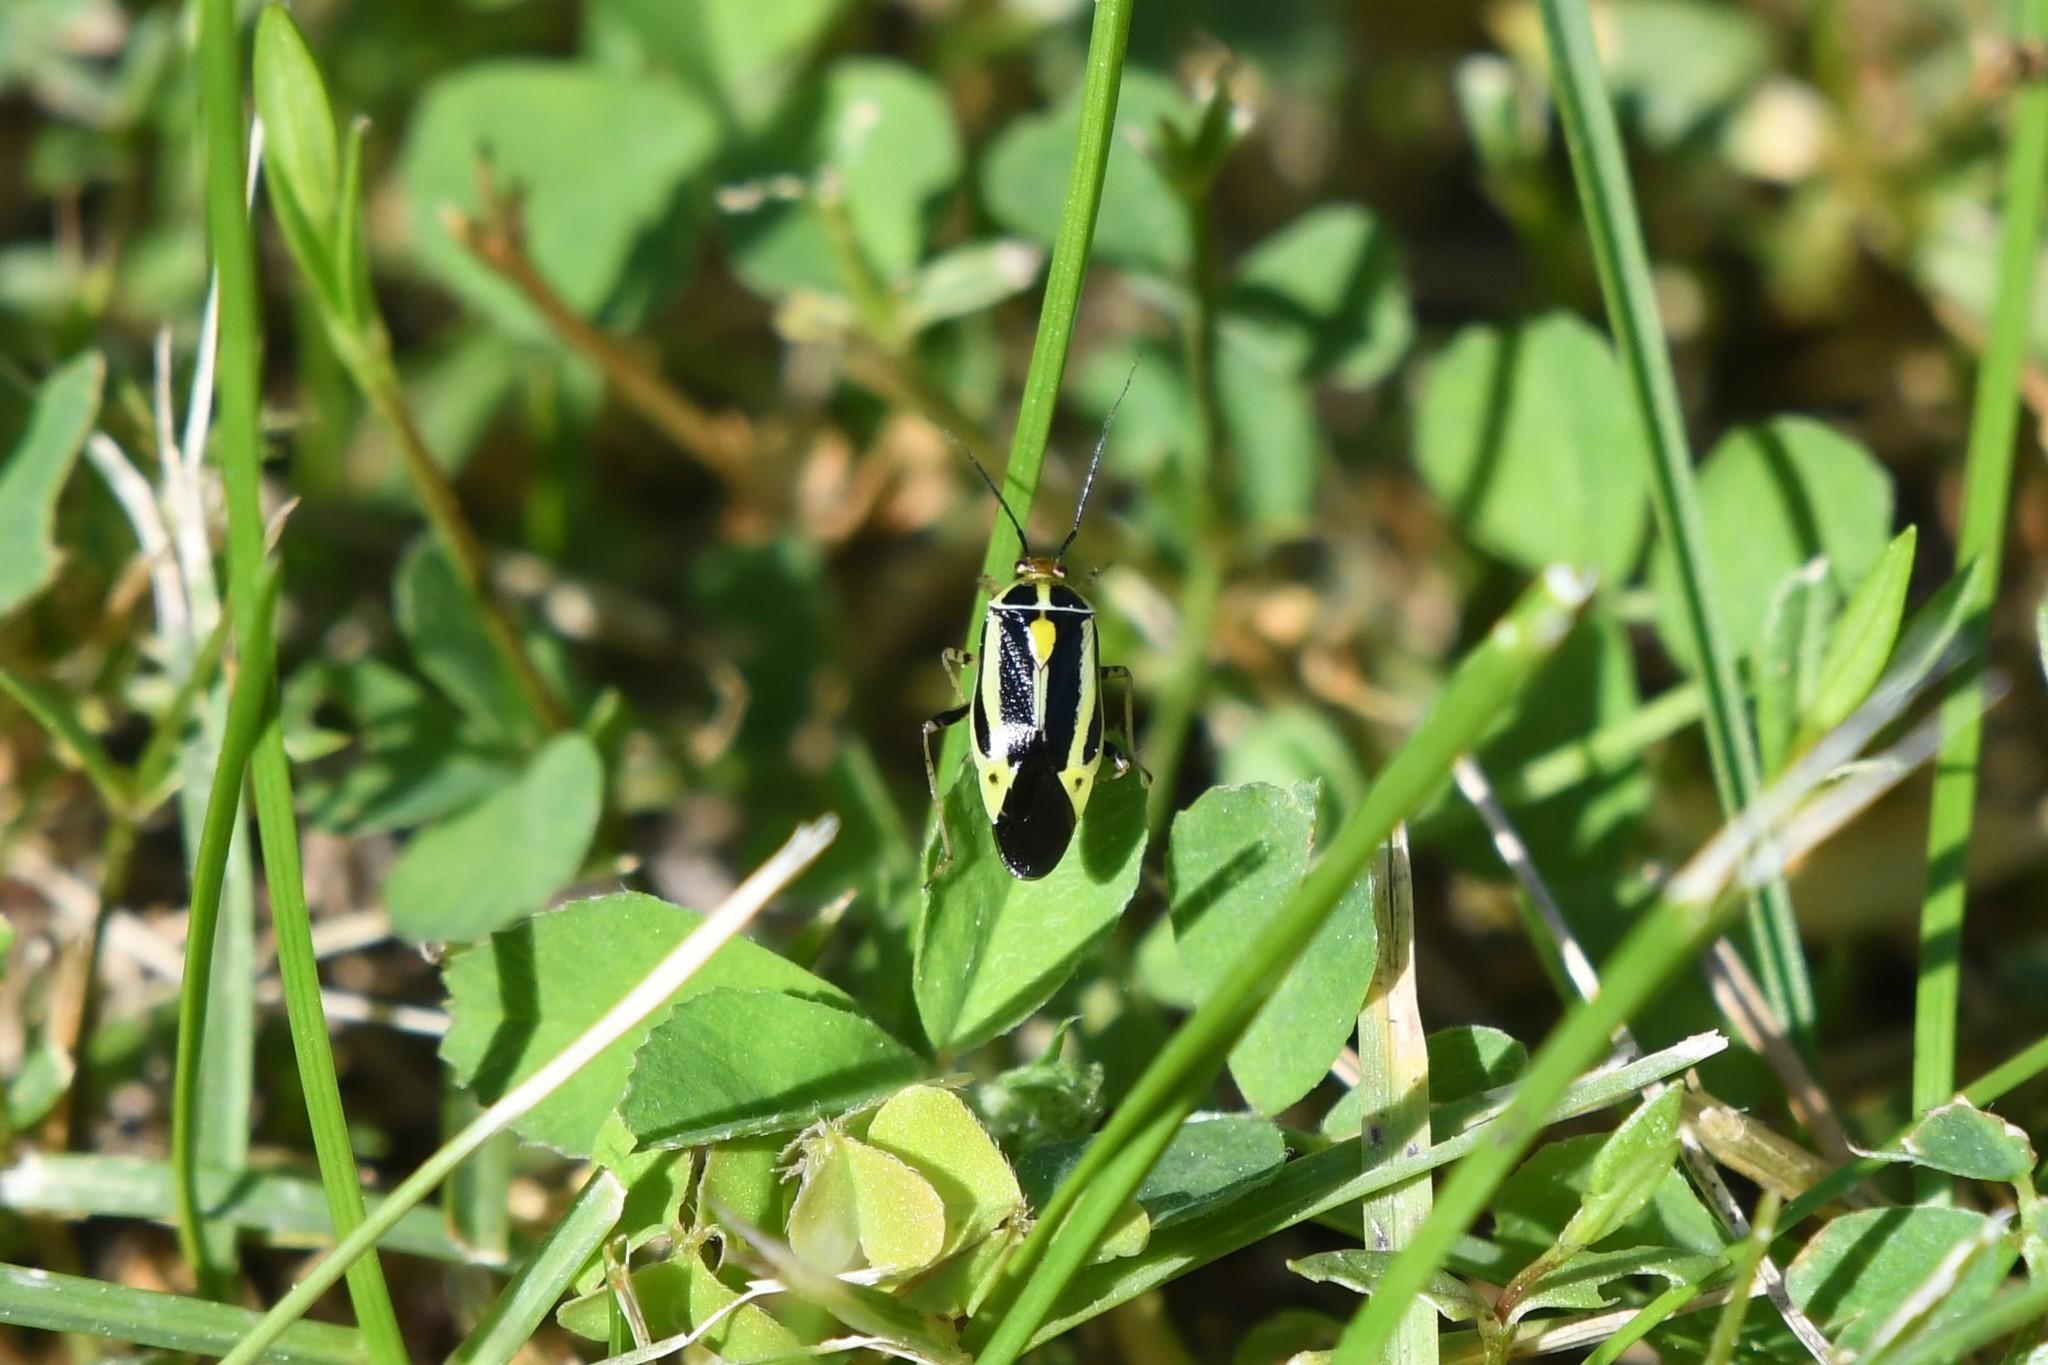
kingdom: Animalia
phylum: Arthropoda
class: Insecta
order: Hemiptera
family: Miridae
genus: Poecilocapsus
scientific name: Poecilocapsus lineatus
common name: Four-lined plant bug
